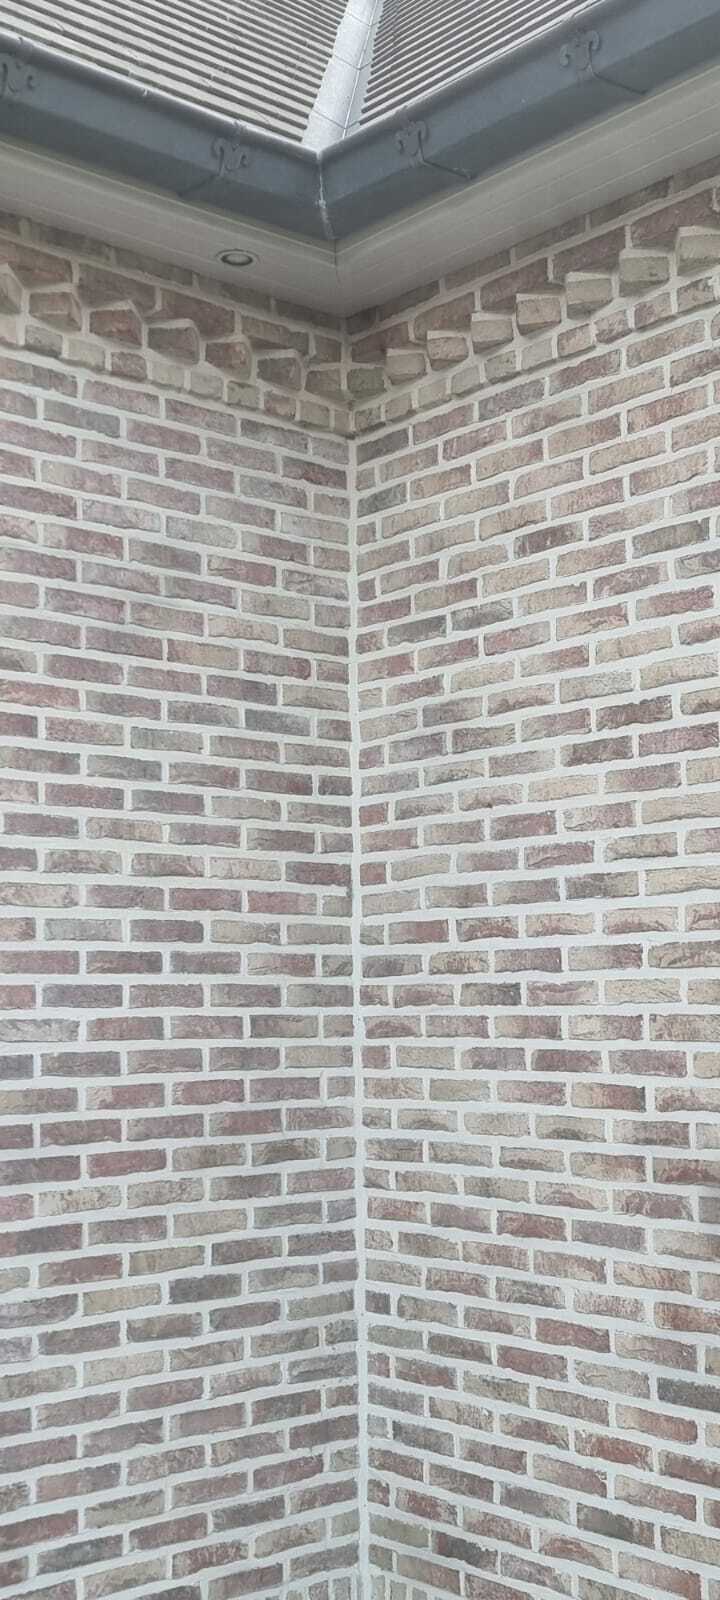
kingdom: Animalia
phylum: Arthropoda
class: Insecta
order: Hymenoptera
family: Vespidae
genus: Vespa
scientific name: Vespa velutina
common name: Asian hornet
